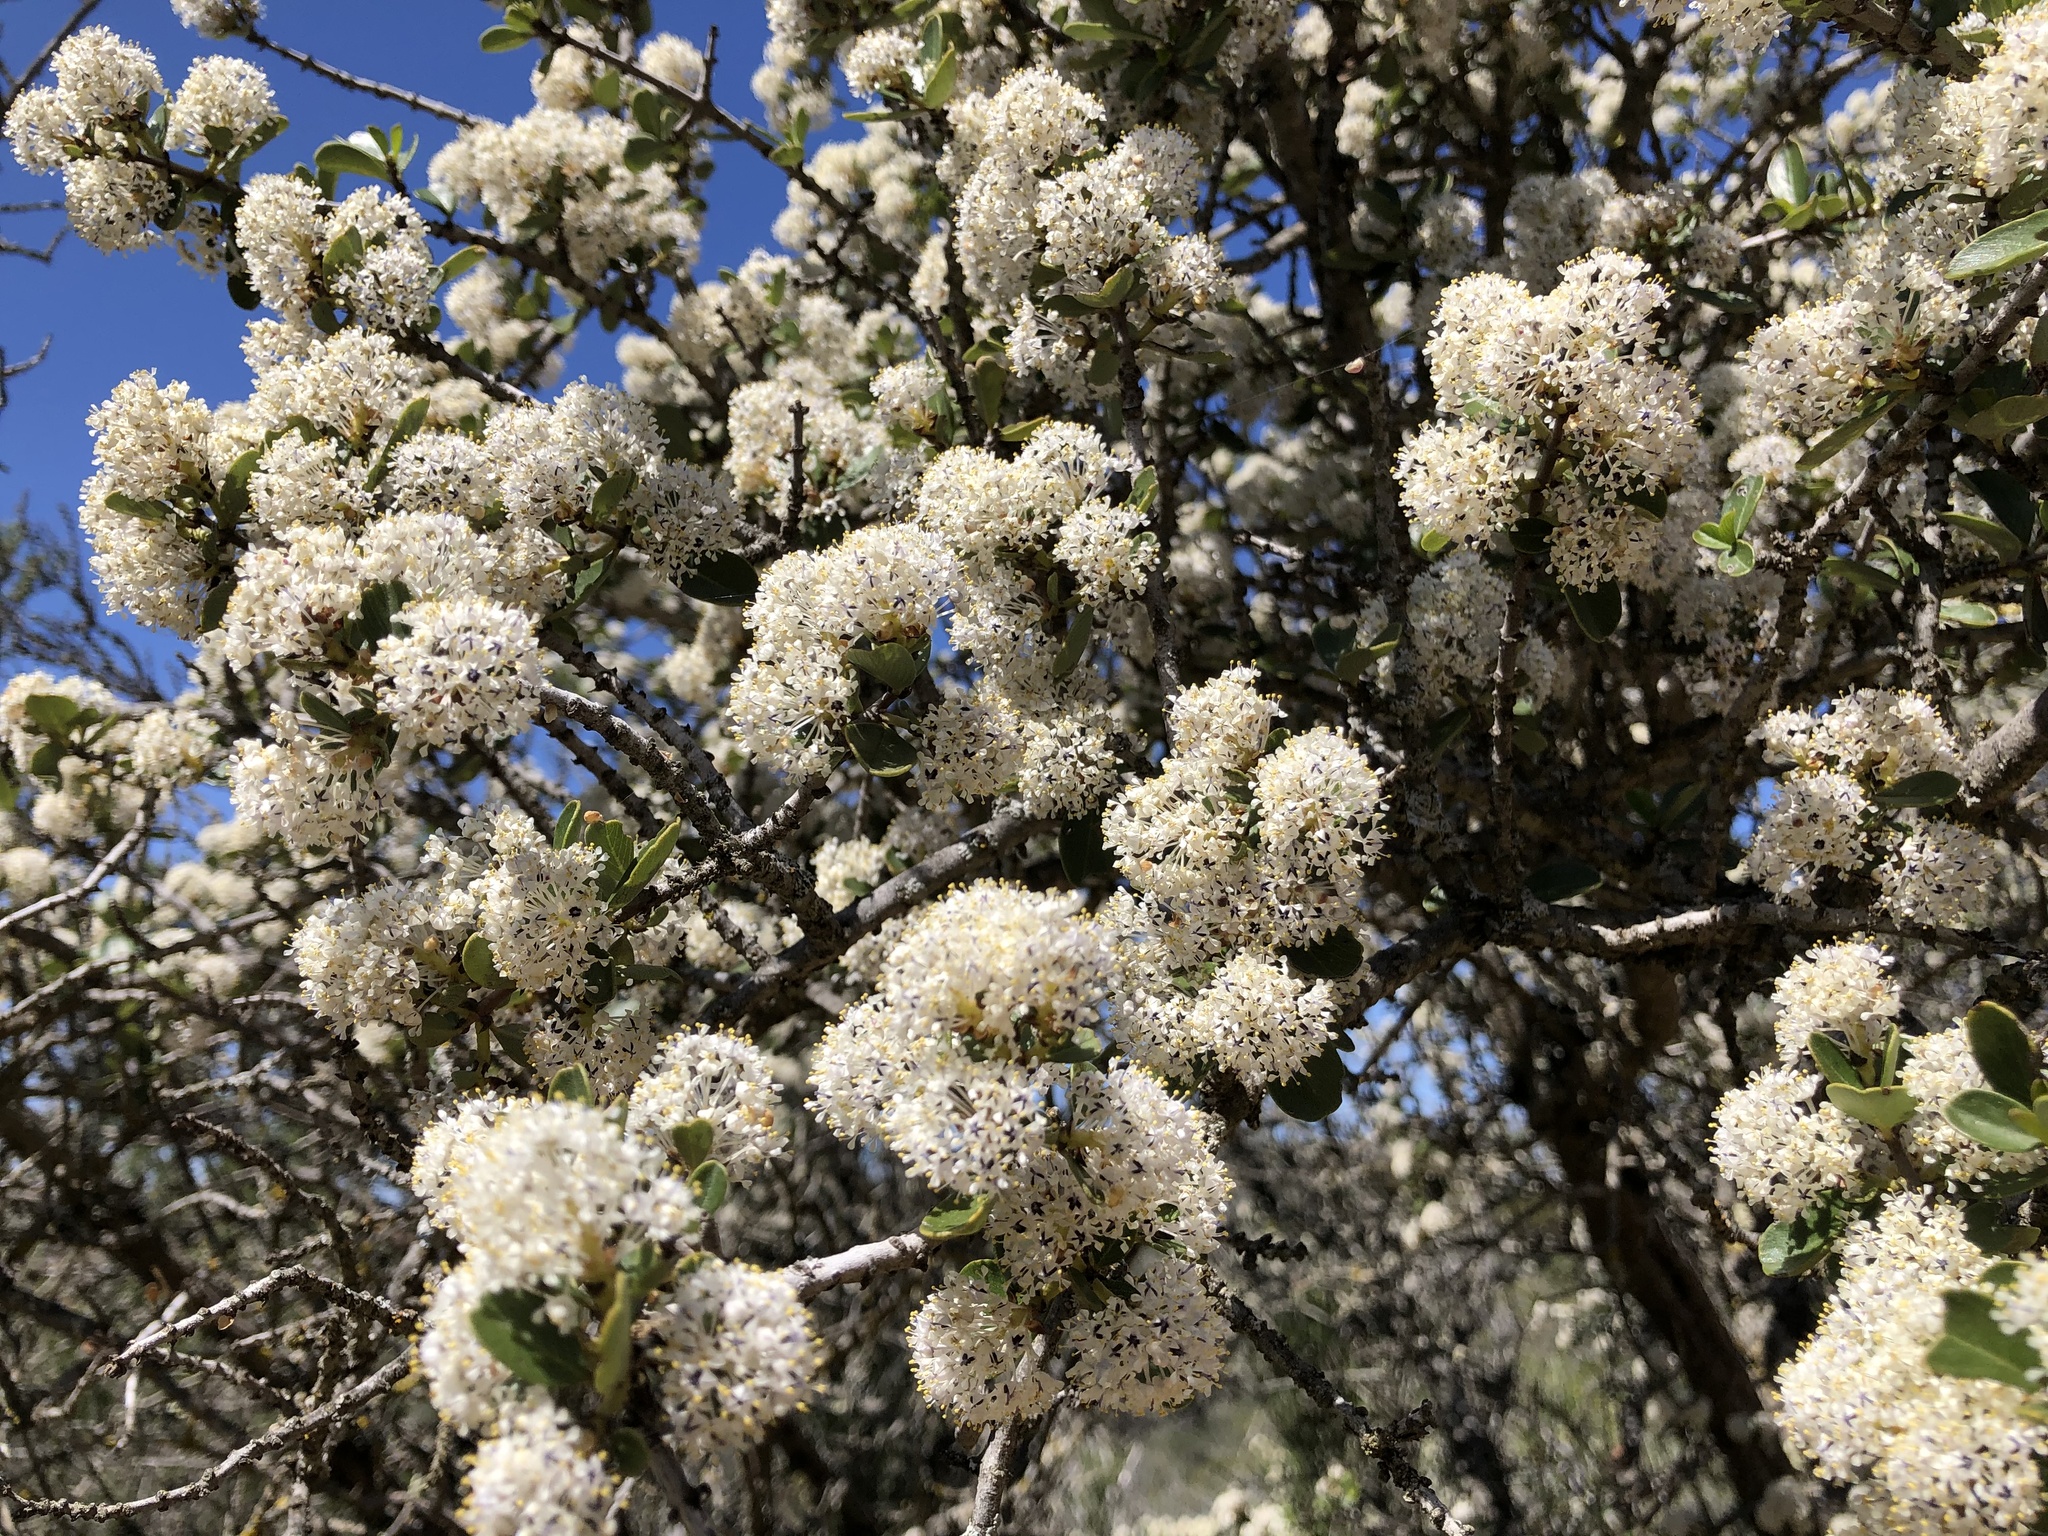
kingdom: Plantae
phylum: Tracheophyta
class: Magnoliopsida
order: Rosales
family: Rhamnaceae
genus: Ceanothus
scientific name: Ceanothus cuneatus
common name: Cuneate ceanothus
